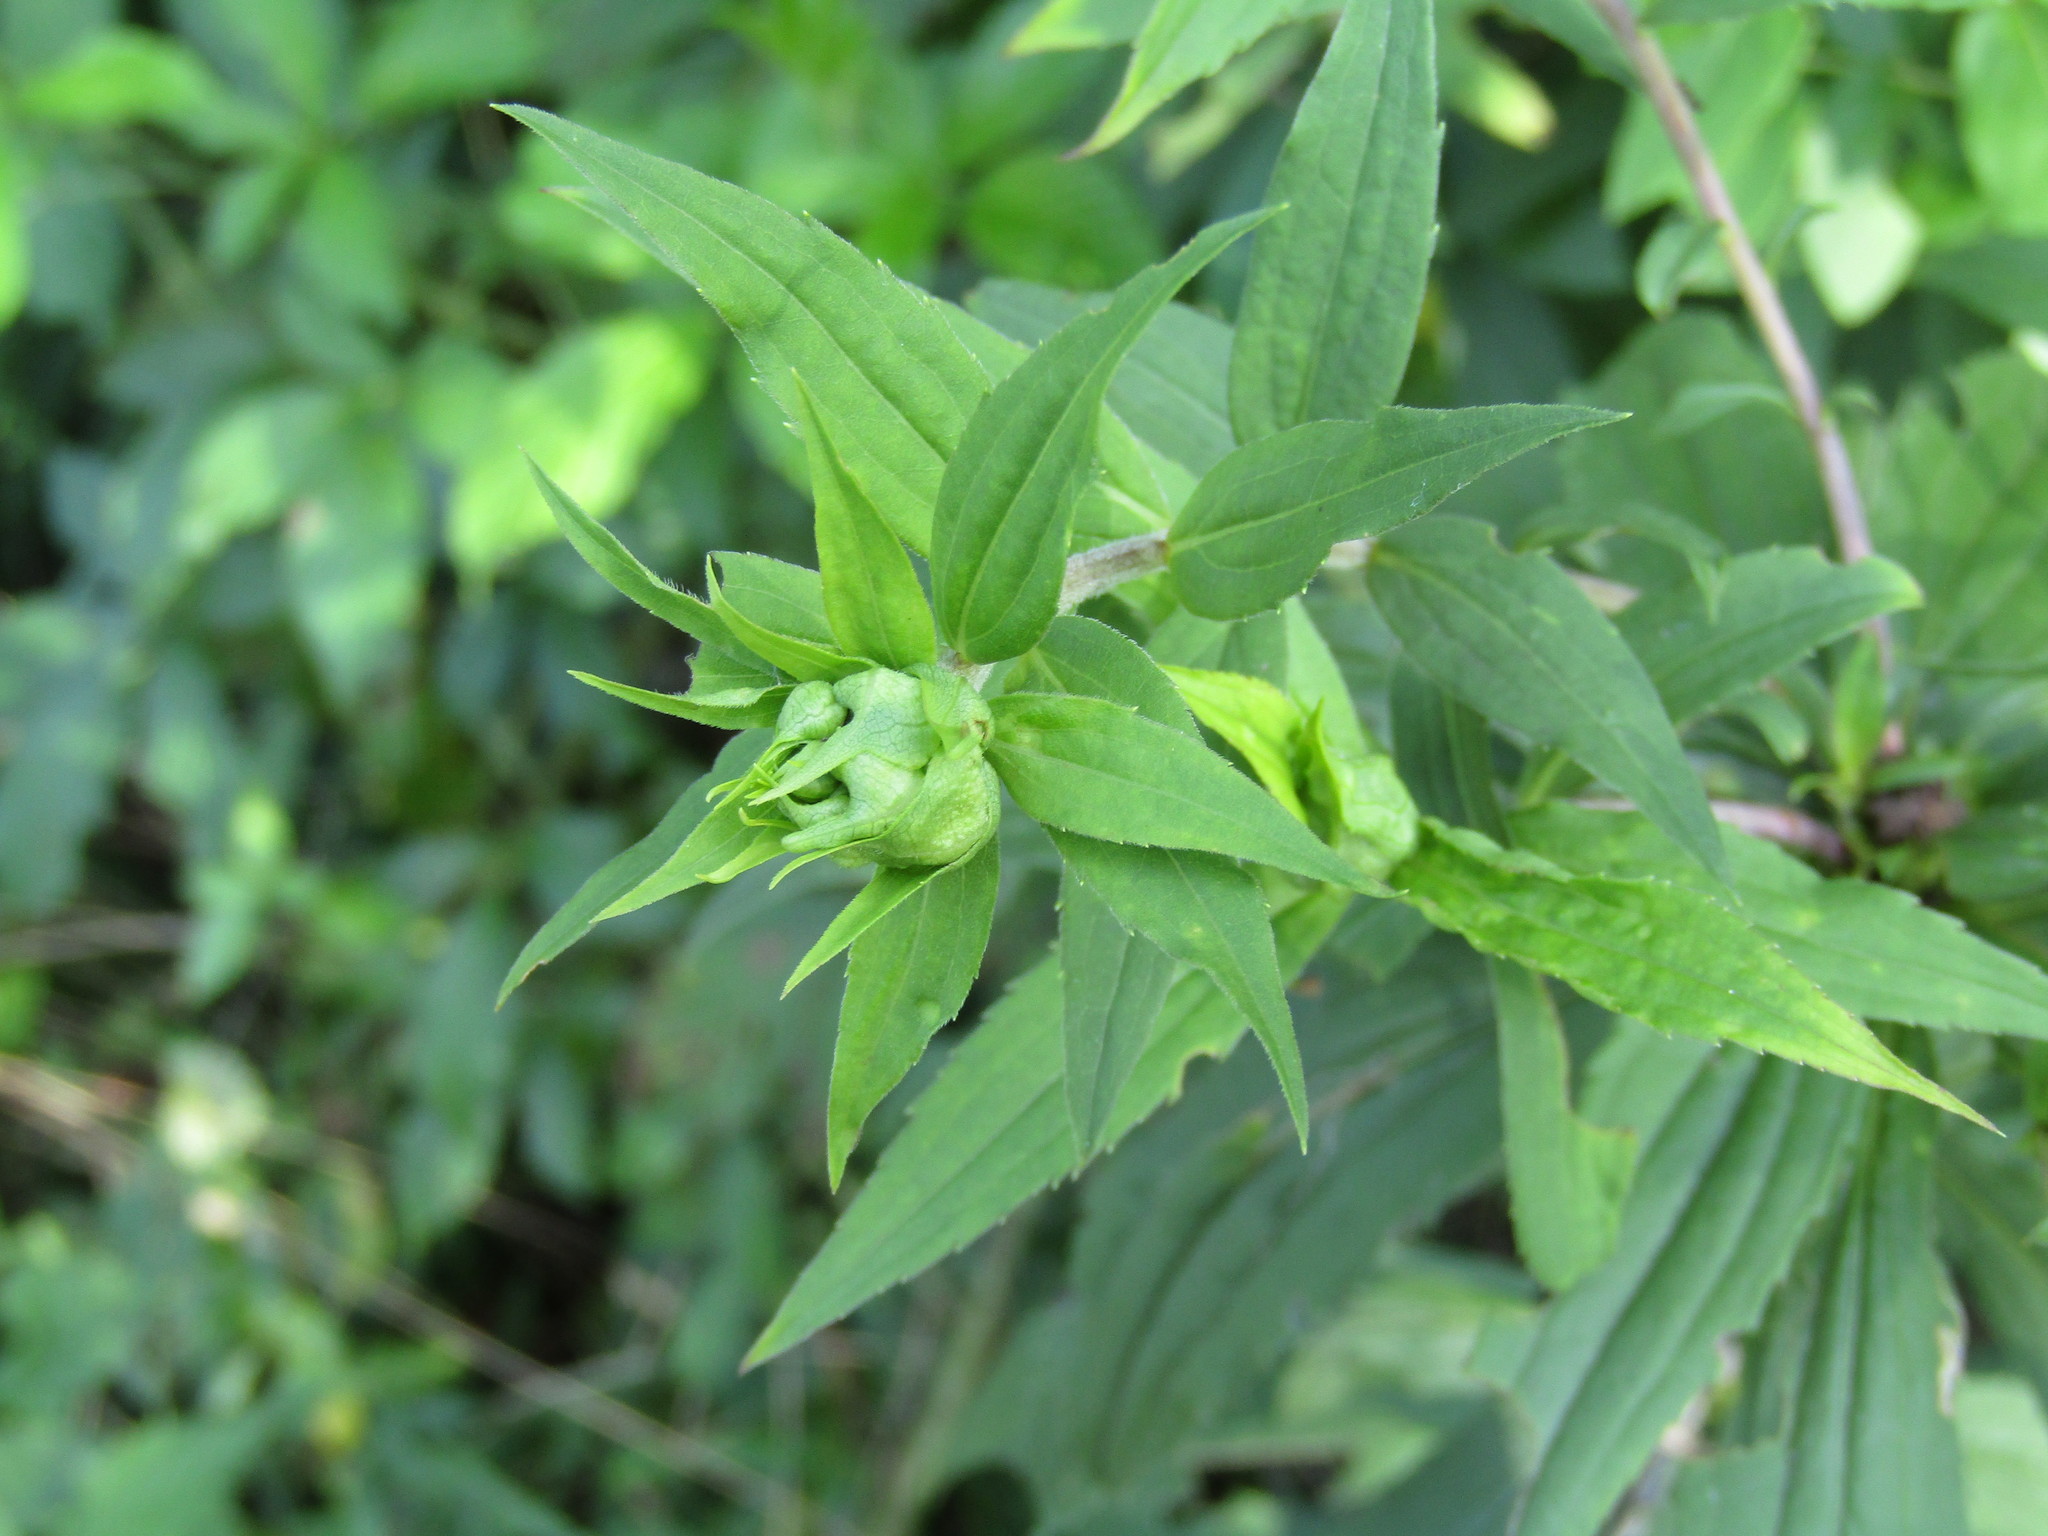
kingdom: Animalia
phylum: Arthropoda
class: Insecta
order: Diptera
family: Cecidomyiidae
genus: Dasineura
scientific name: Dasineura folliculi
